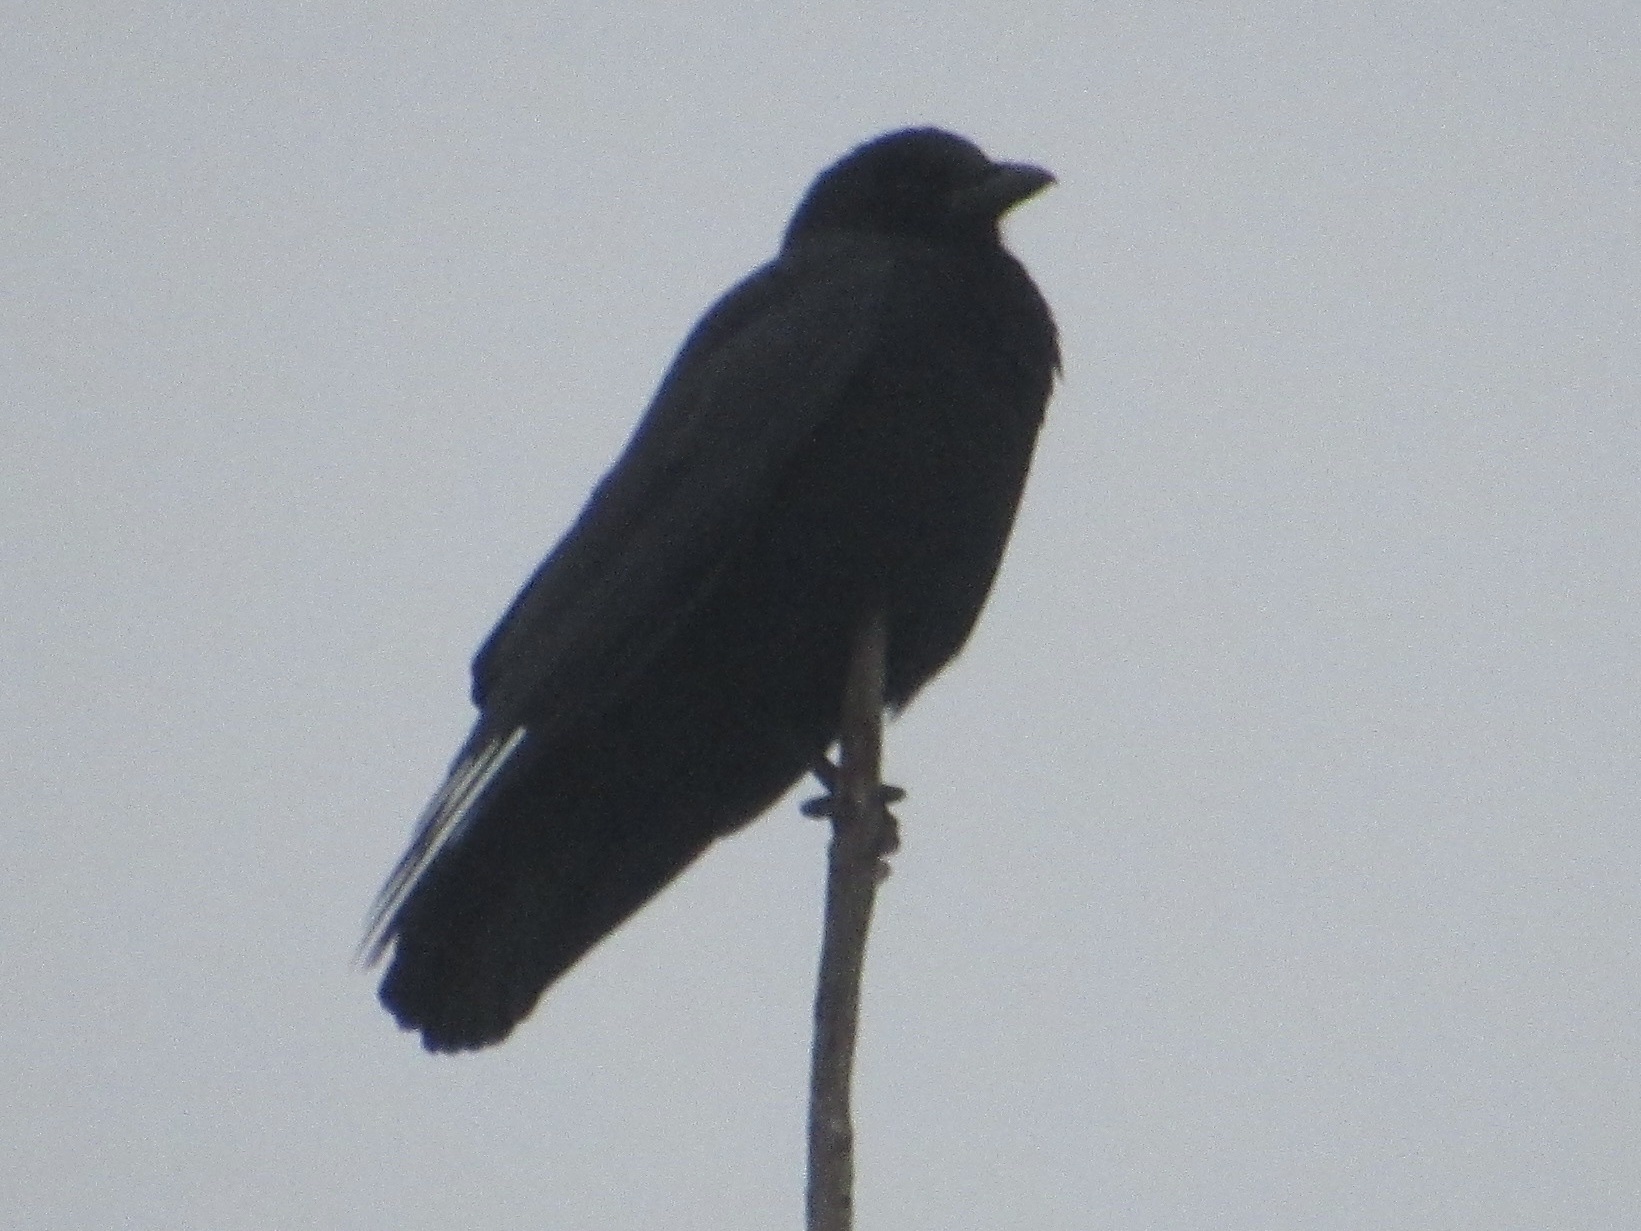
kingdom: Animalia
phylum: Chordata
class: Aves
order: Passeriformes
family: Corvidae
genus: Corvus
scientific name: Corvus brachyrhynchos
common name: American crow
